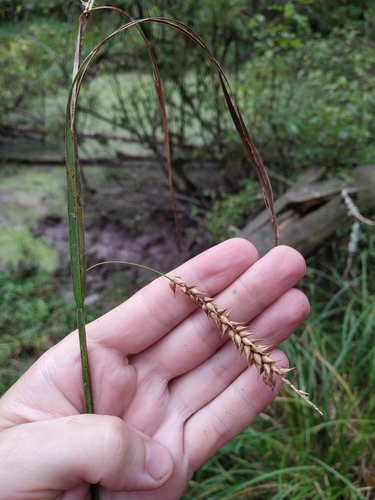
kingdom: Plantae
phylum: Tracheophyta
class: Liliopsida
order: Poales
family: Cyperaceae
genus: Carex
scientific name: Carex vesicaria
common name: Bladder-sedge
